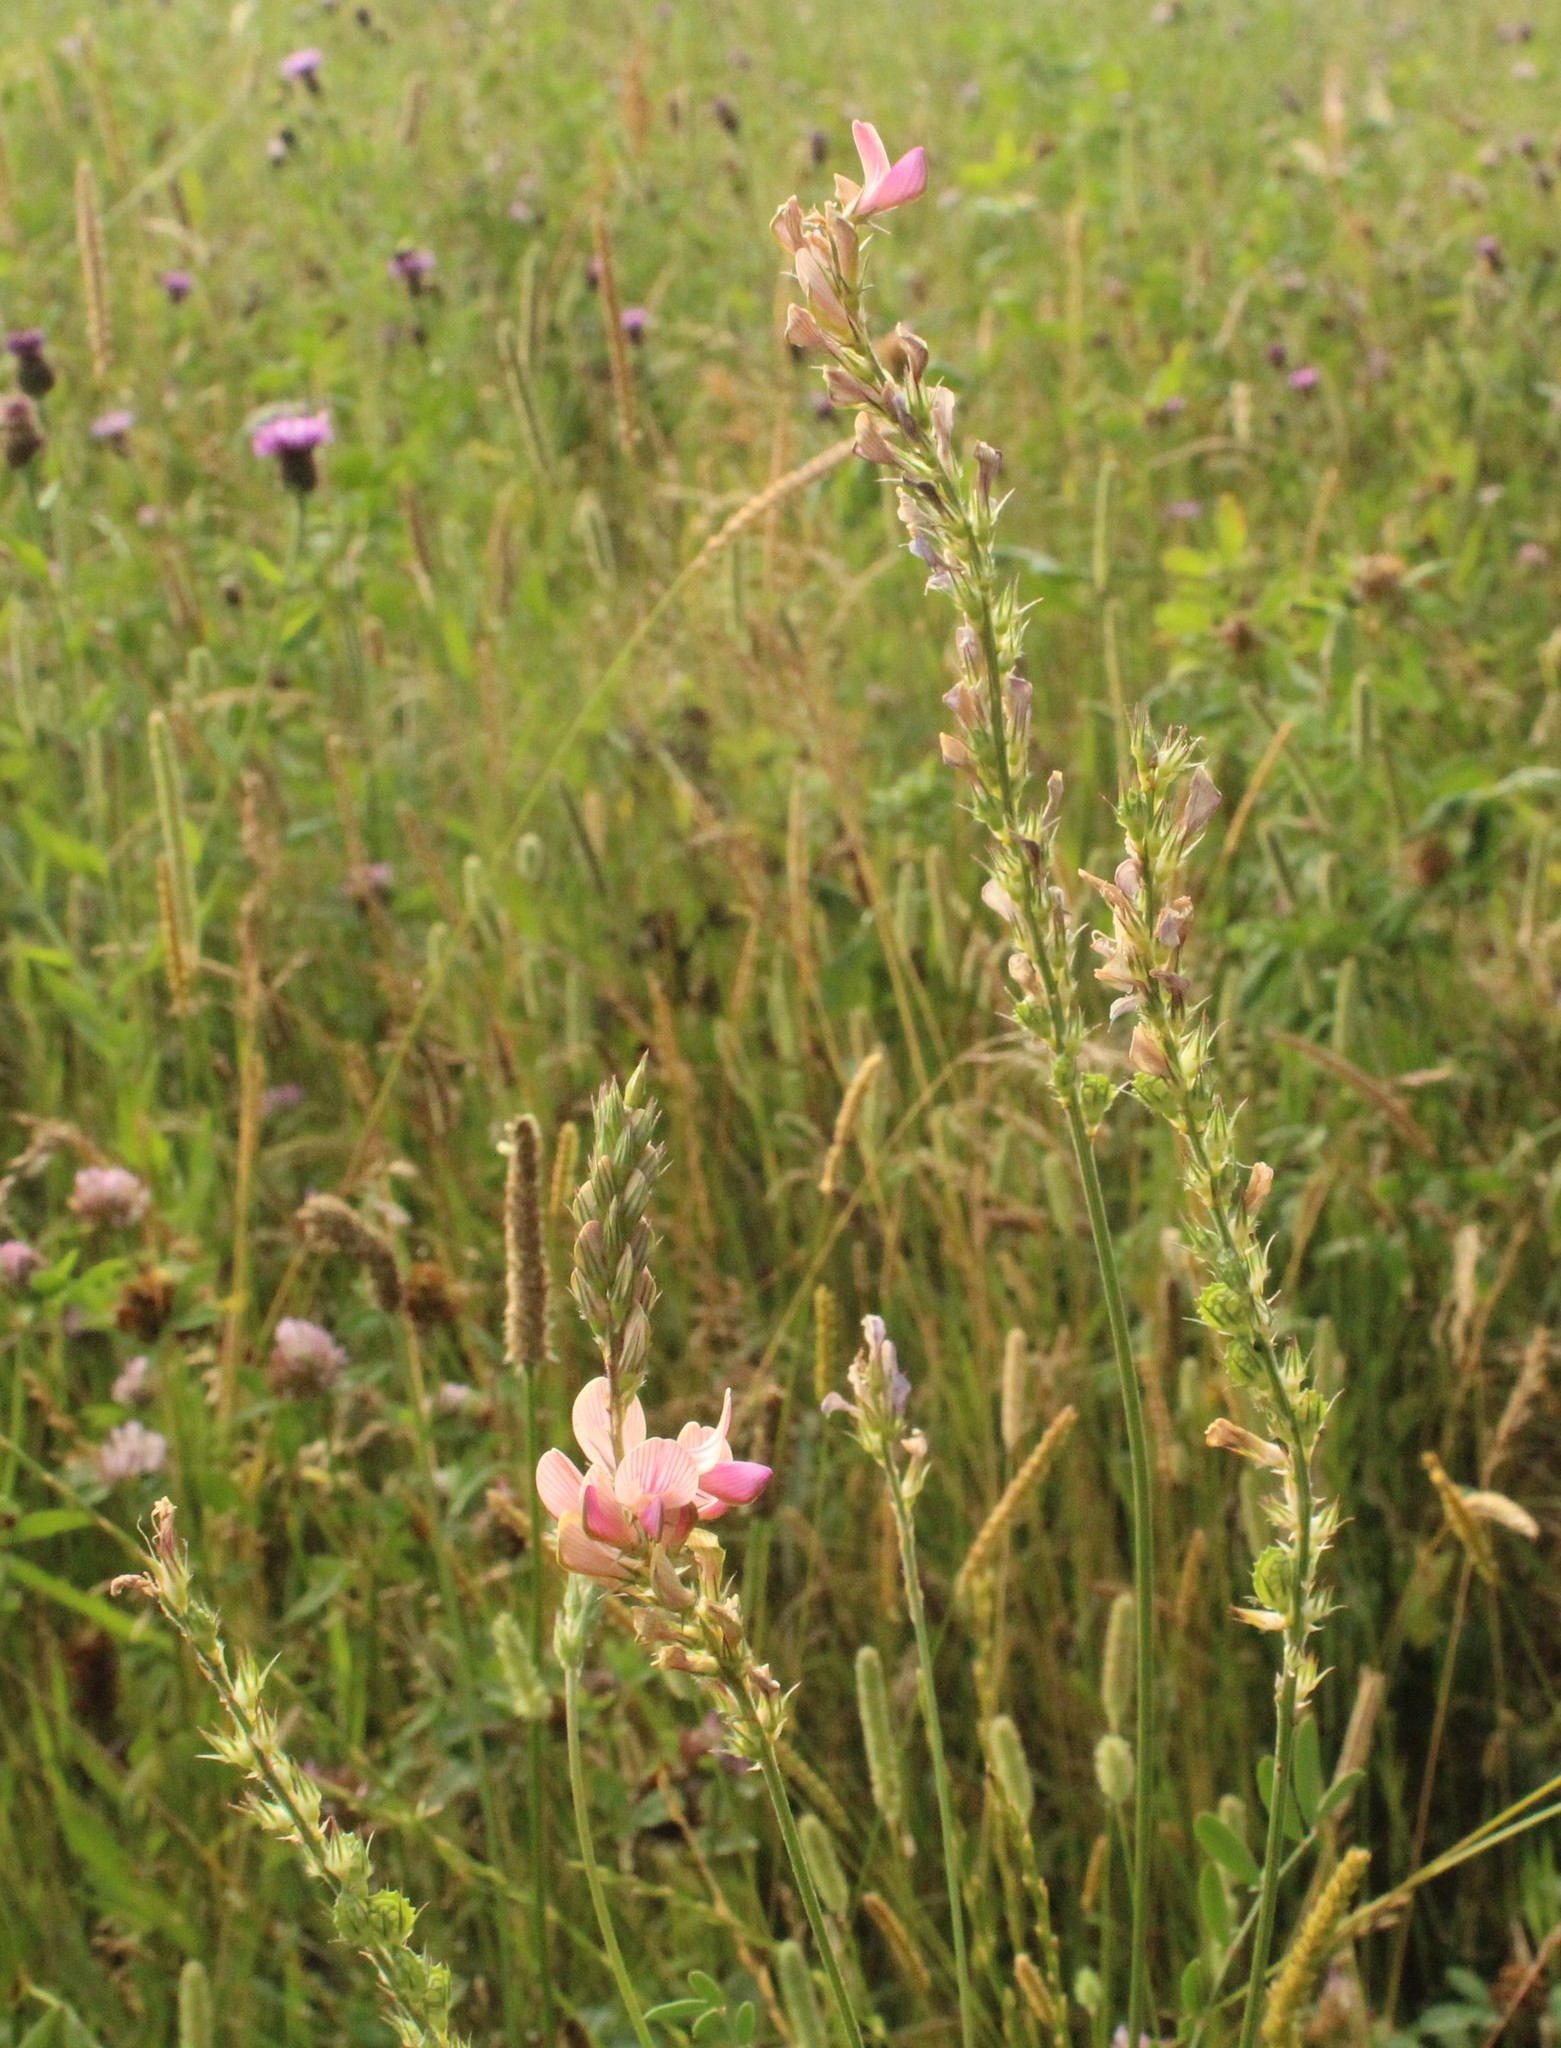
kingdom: Plantae
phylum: Tracheophyta
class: Magnoliopsida
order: Fabales
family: Fabaceae
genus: Onobrychis
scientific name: Onobrychis viciifolia
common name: Sainfoin
